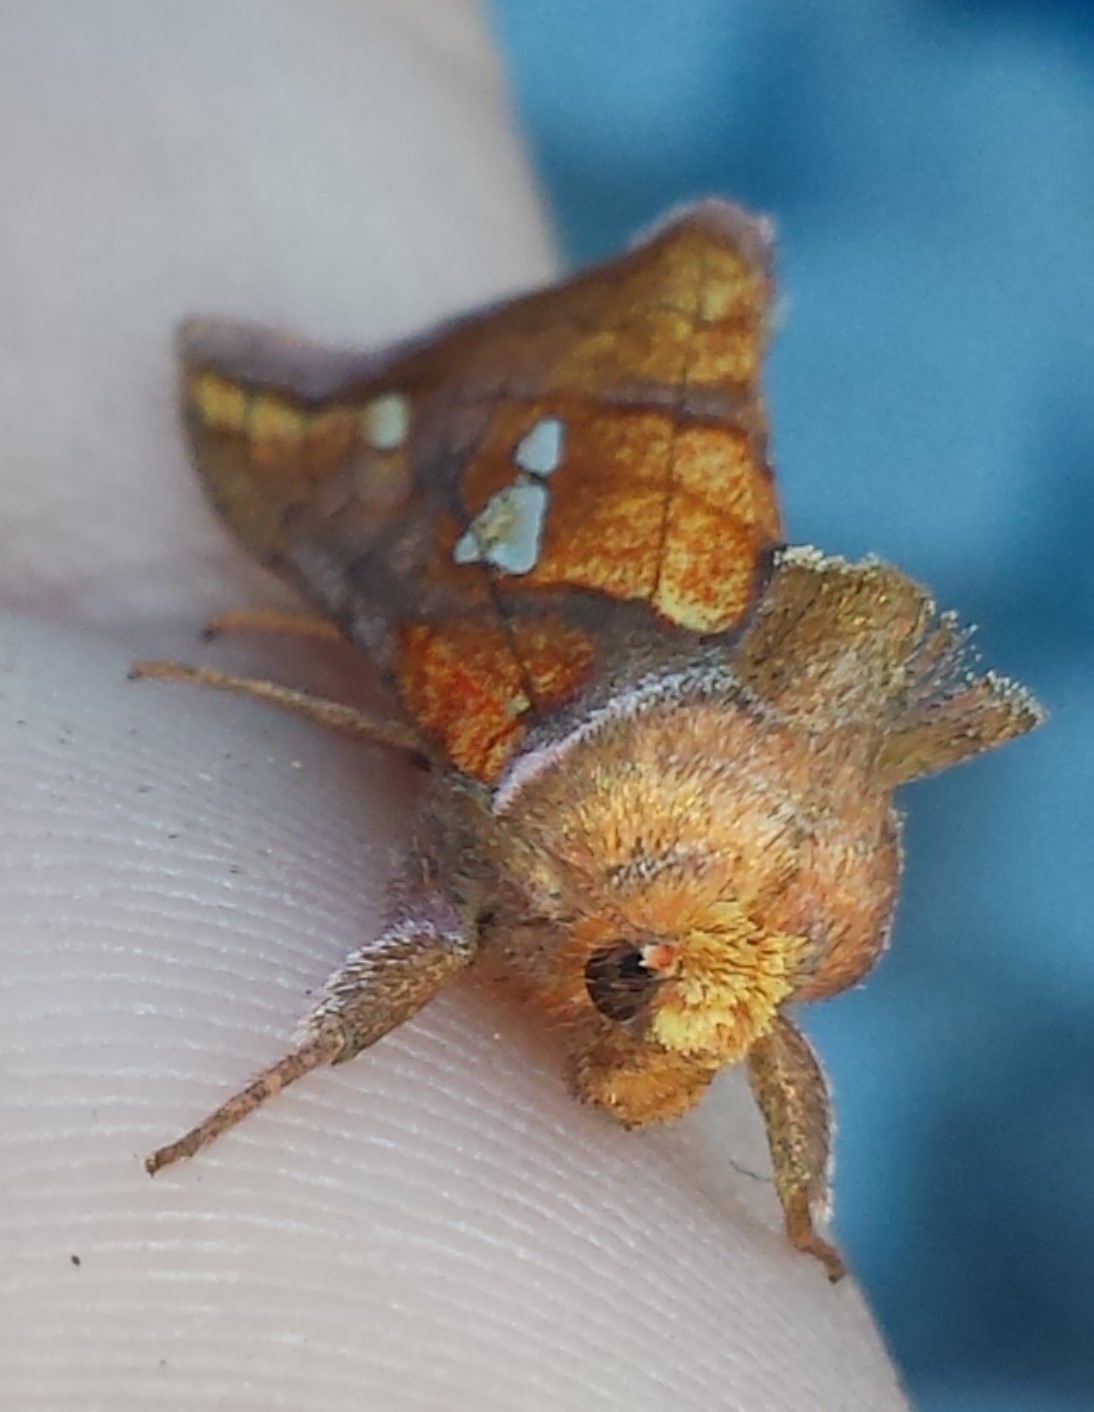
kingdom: Animalia
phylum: Arthropoda
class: Insecta
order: Lepidoptera
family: Noctuidae
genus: Plusia
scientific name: Plusia putnami
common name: Lempke's gold spot
